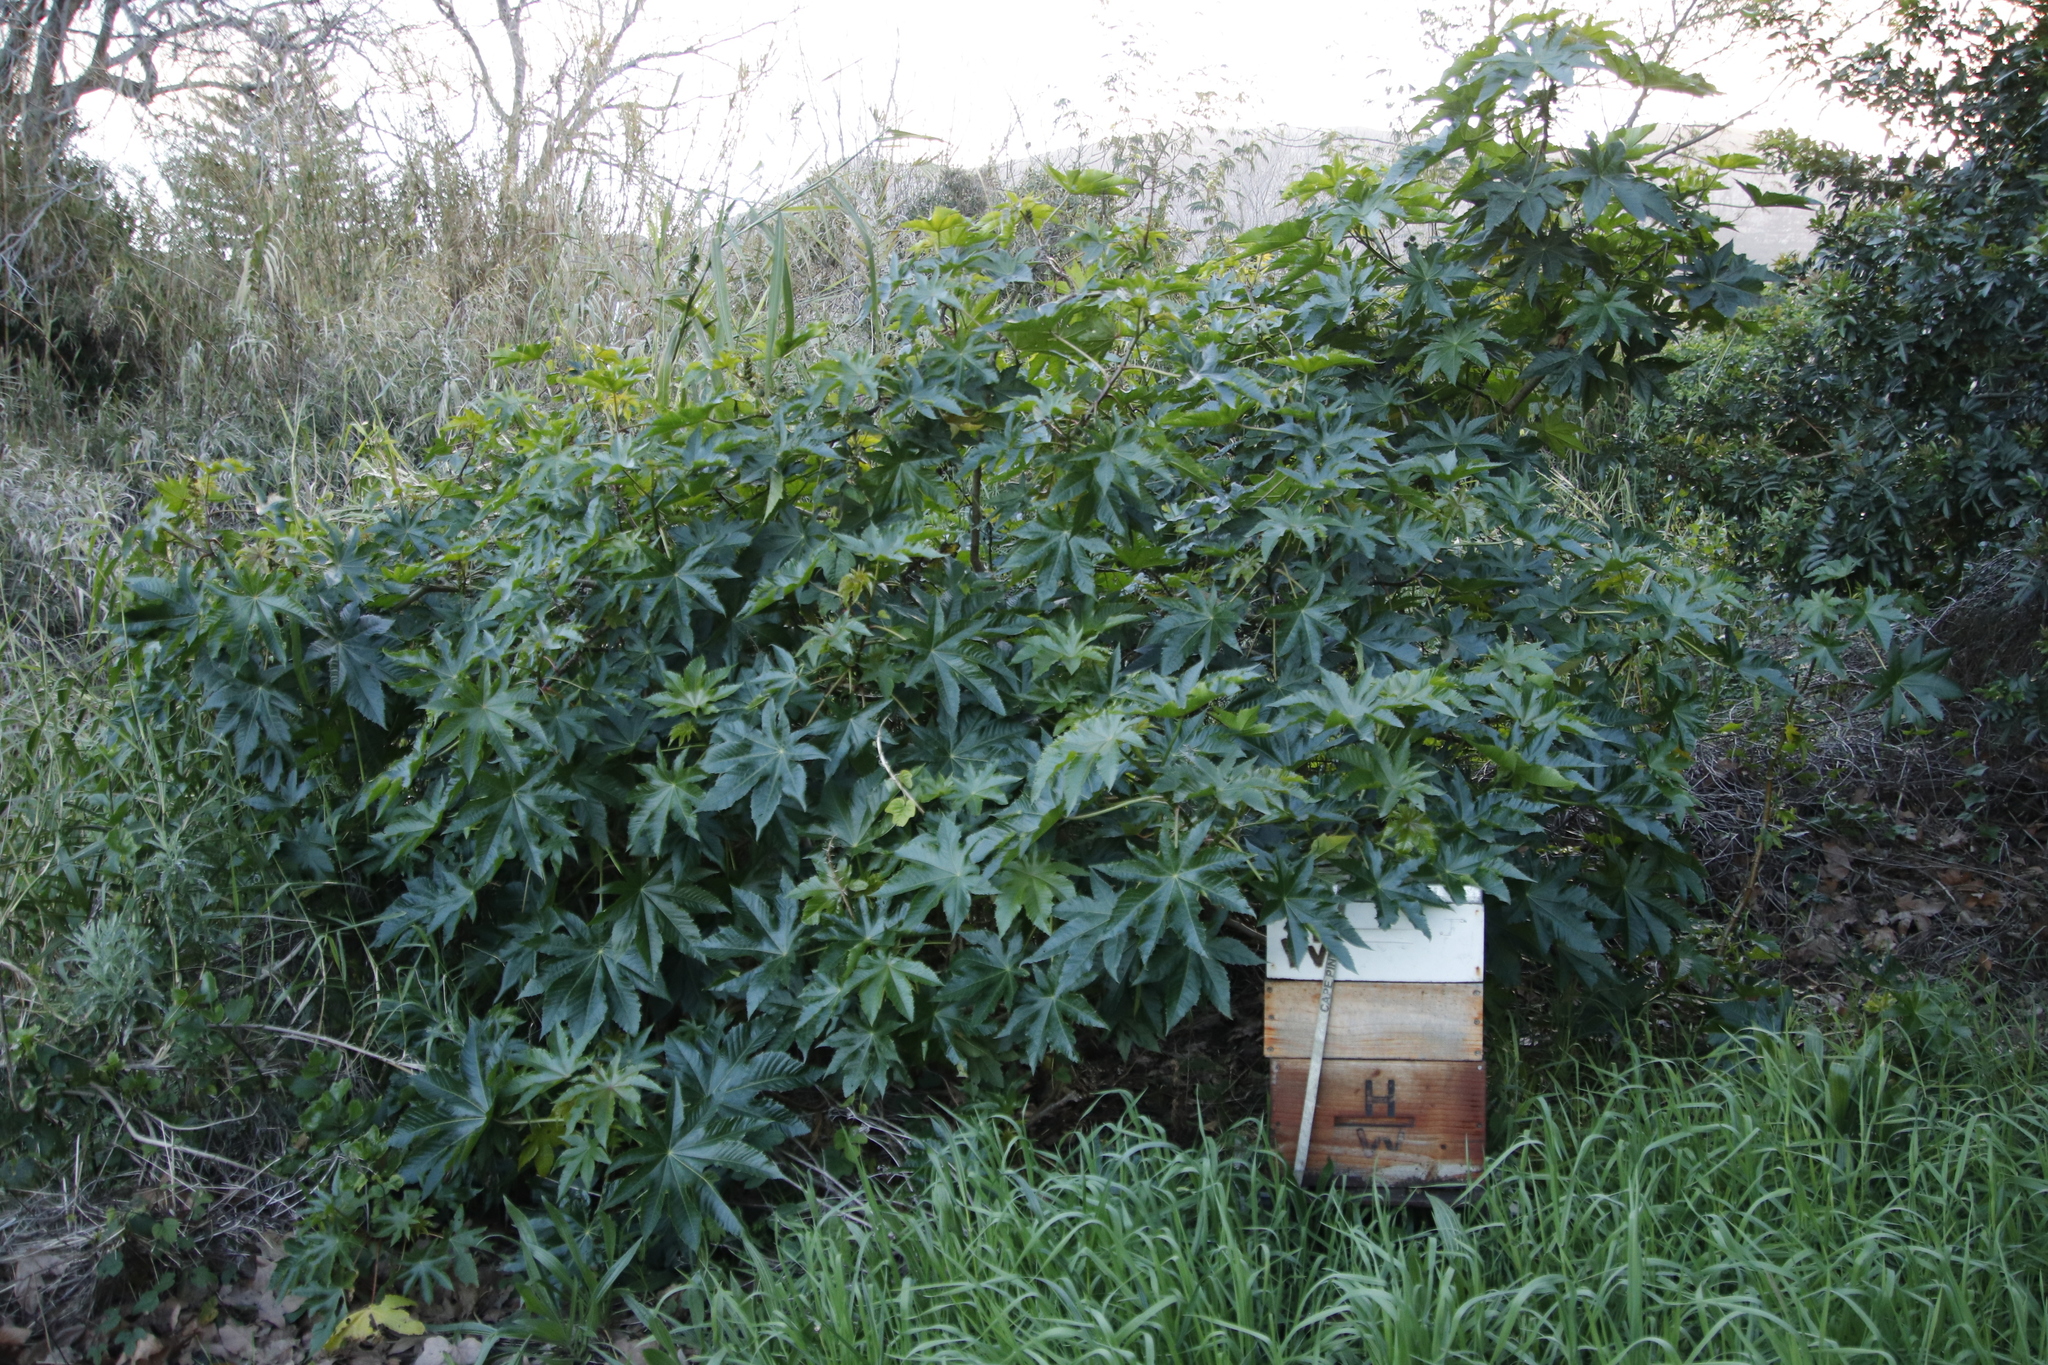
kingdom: Plantae
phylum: Tracheophyta
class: Magnoliopsida
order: Malpighiales
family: Euphorbiaceae
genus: Ricinus
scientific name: Ricinus communis
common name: Castor-oil-plant
